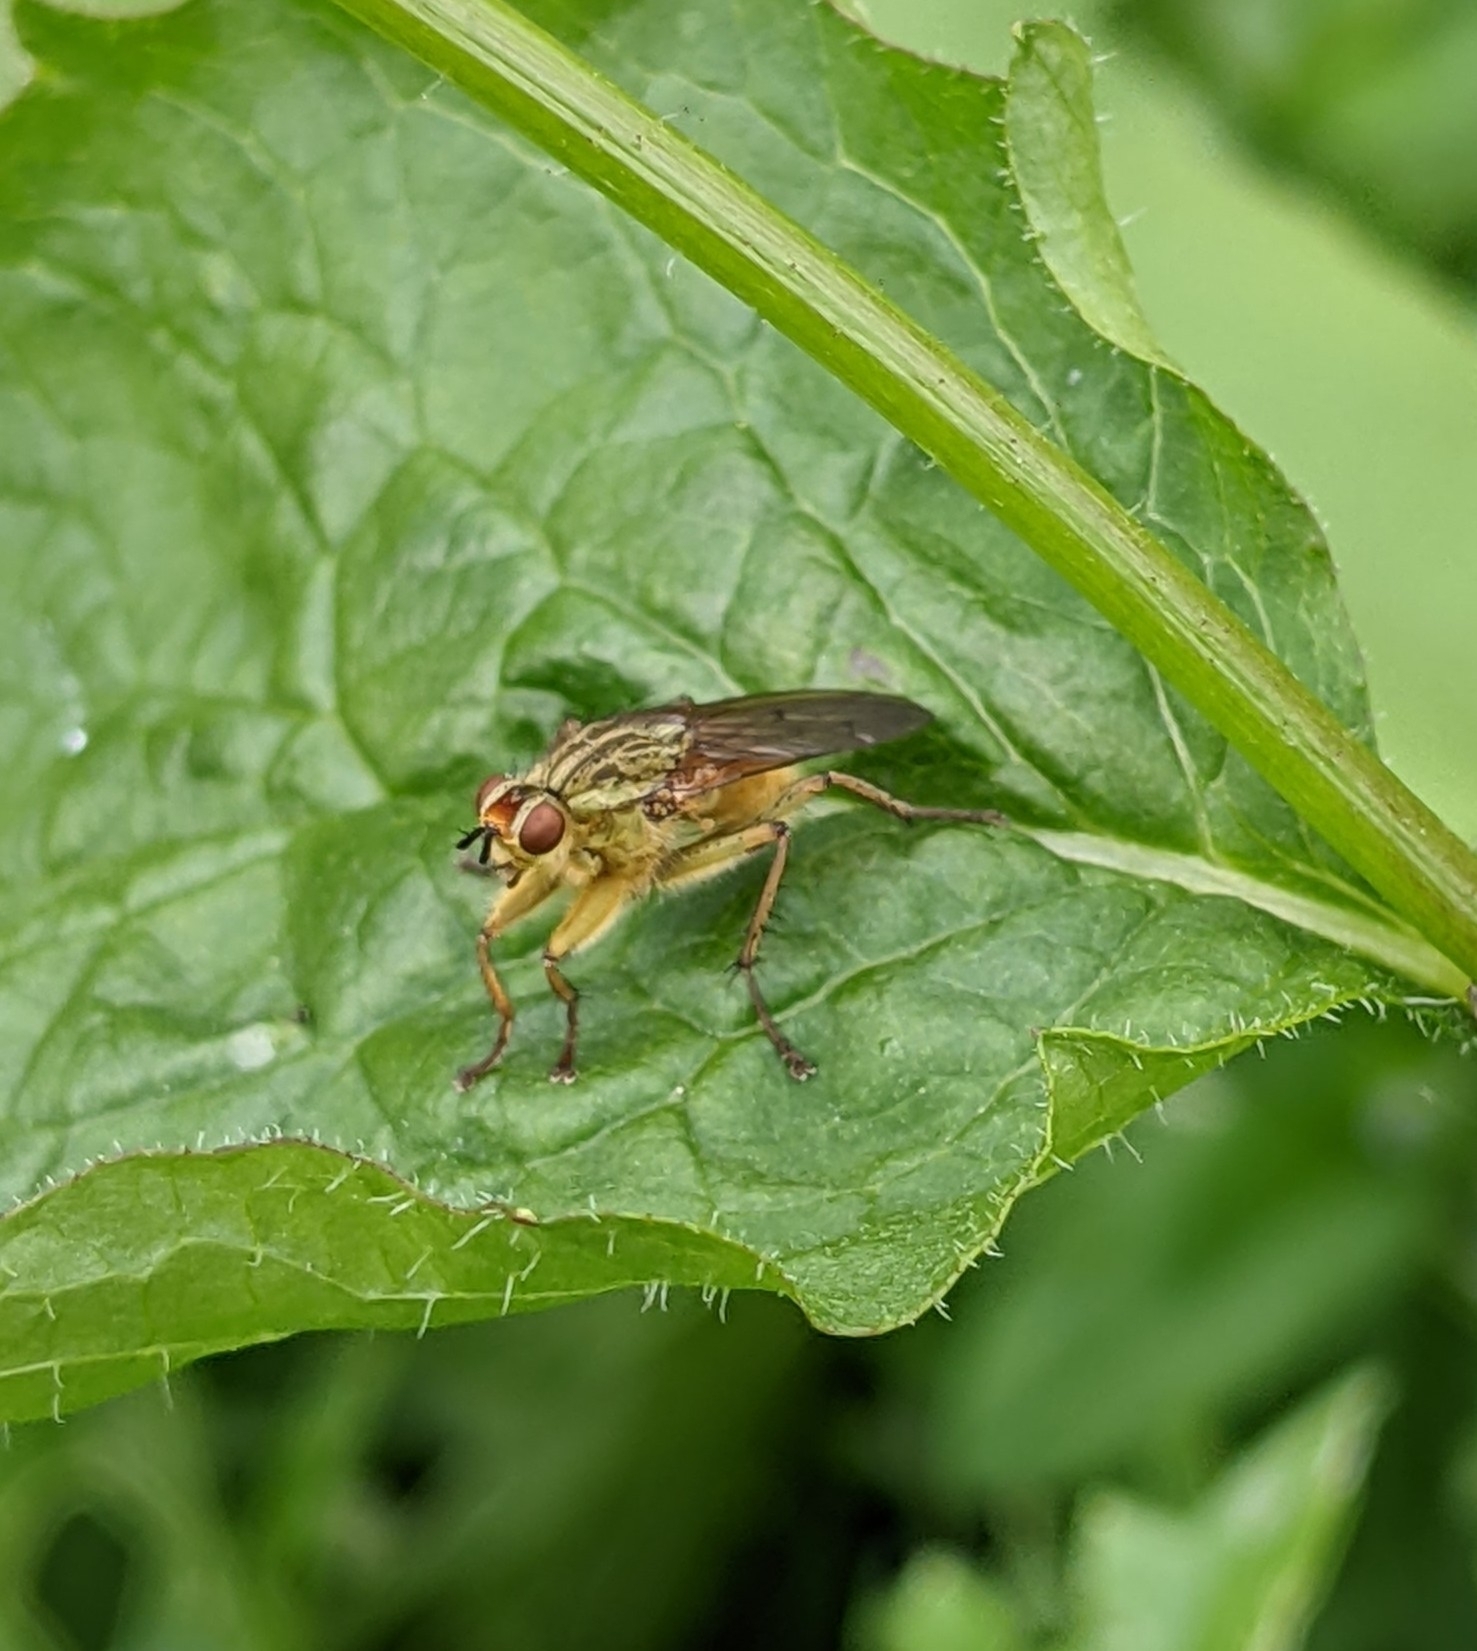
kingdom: Animalia
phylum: Arthropoda
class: Insecta
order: Diptera
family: Scathophagidae
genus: Scathophaga
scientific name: Scathophaga stercoraria
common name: Yellow dung fly
